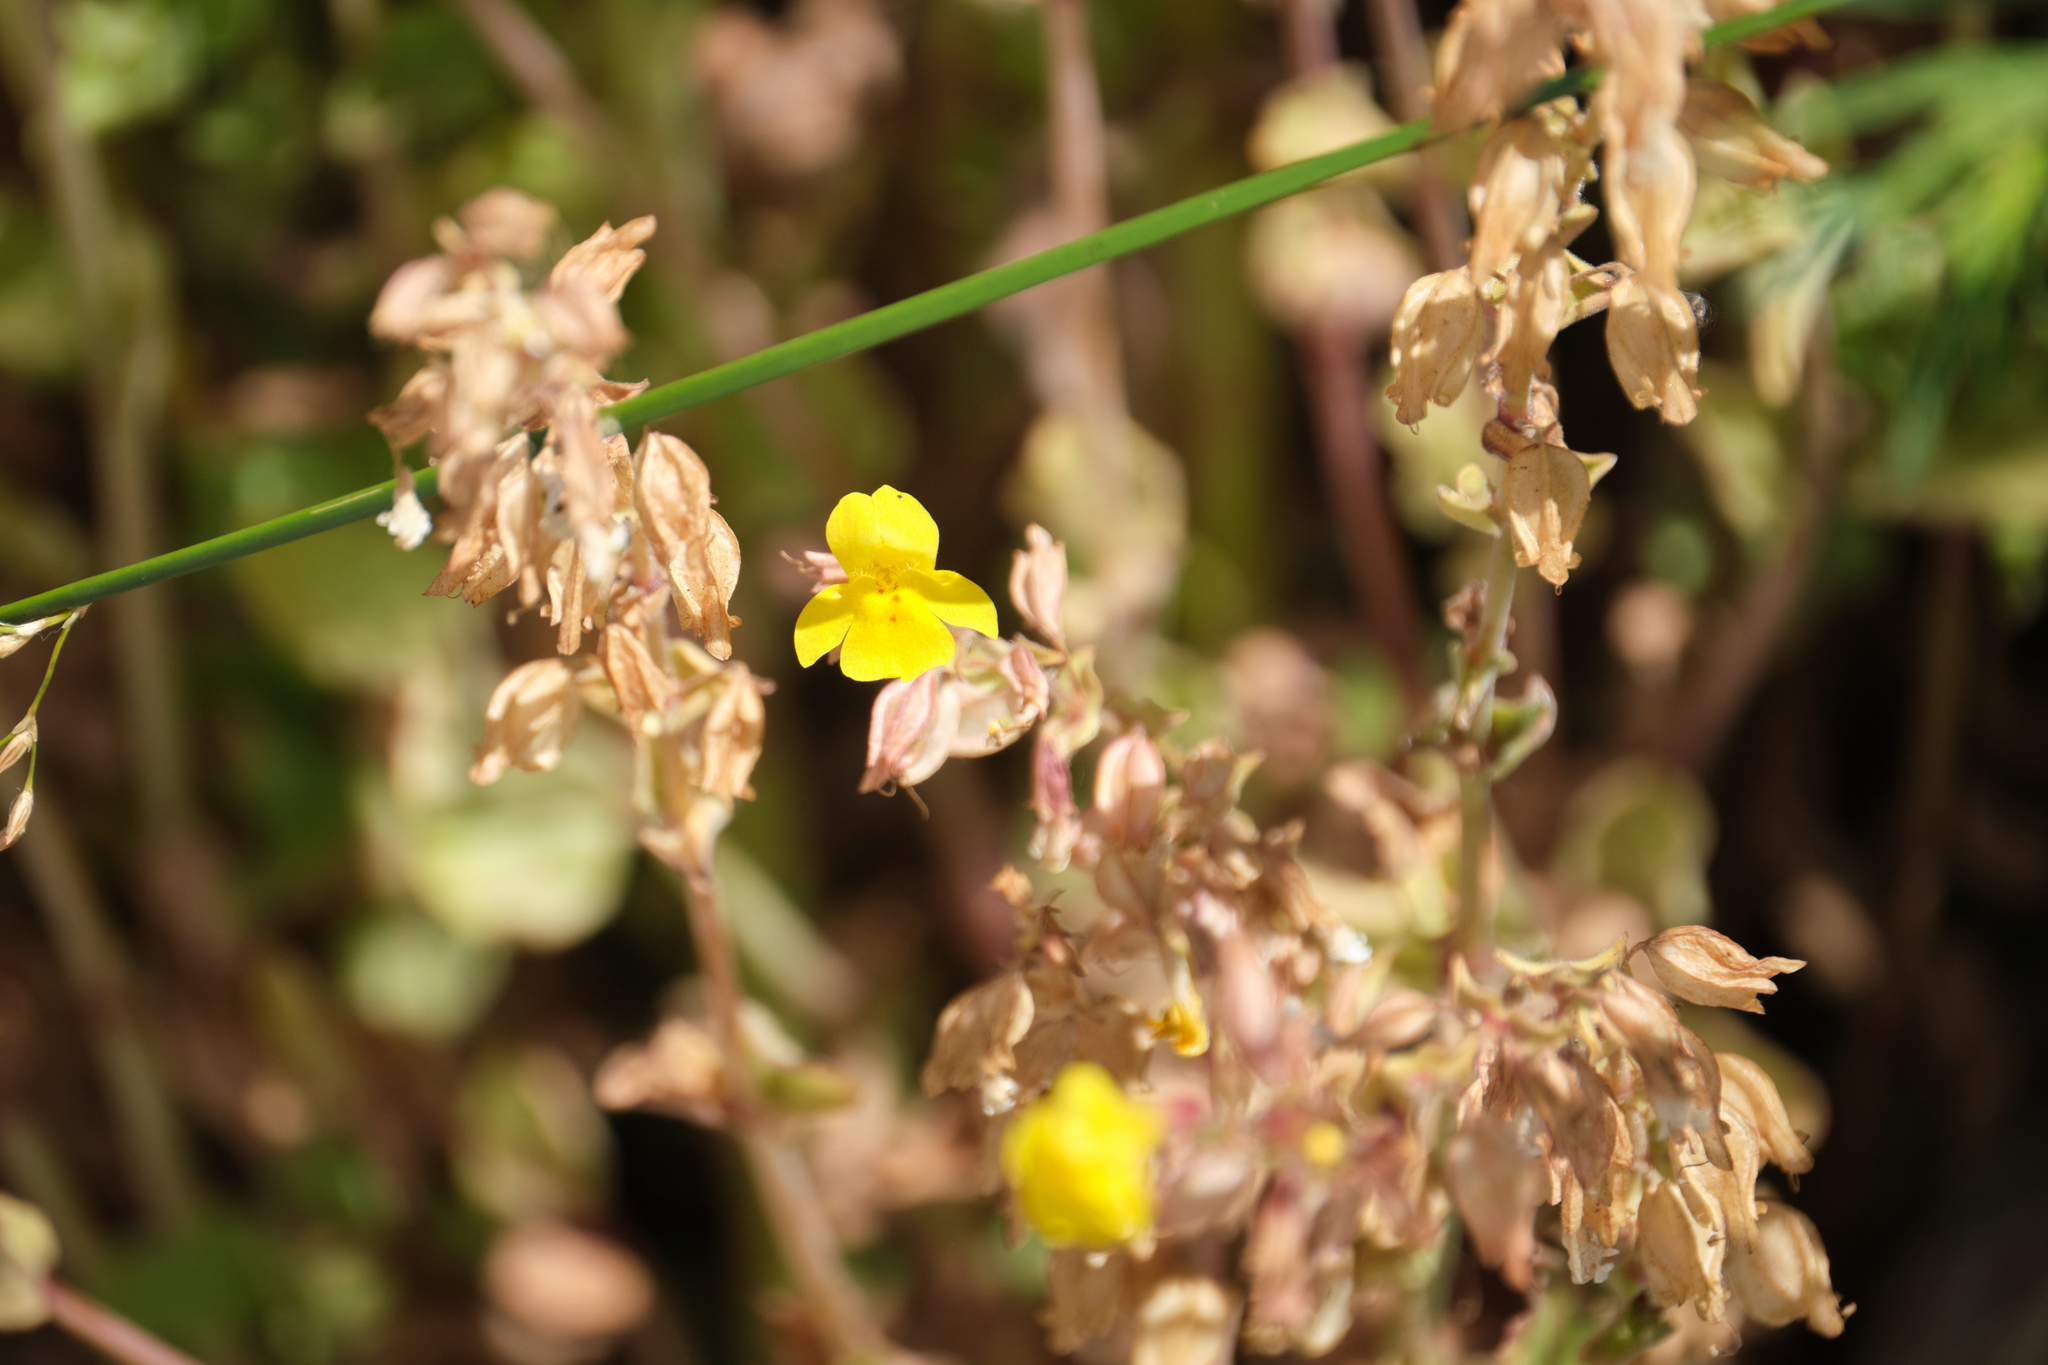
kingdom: Plantae
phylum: Tracheophyta
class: Magnoliopsida
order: Lamiales
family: Phrymaceae
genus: Erythranthe
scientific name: Erythranthe guttata
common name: Monkeyflower
